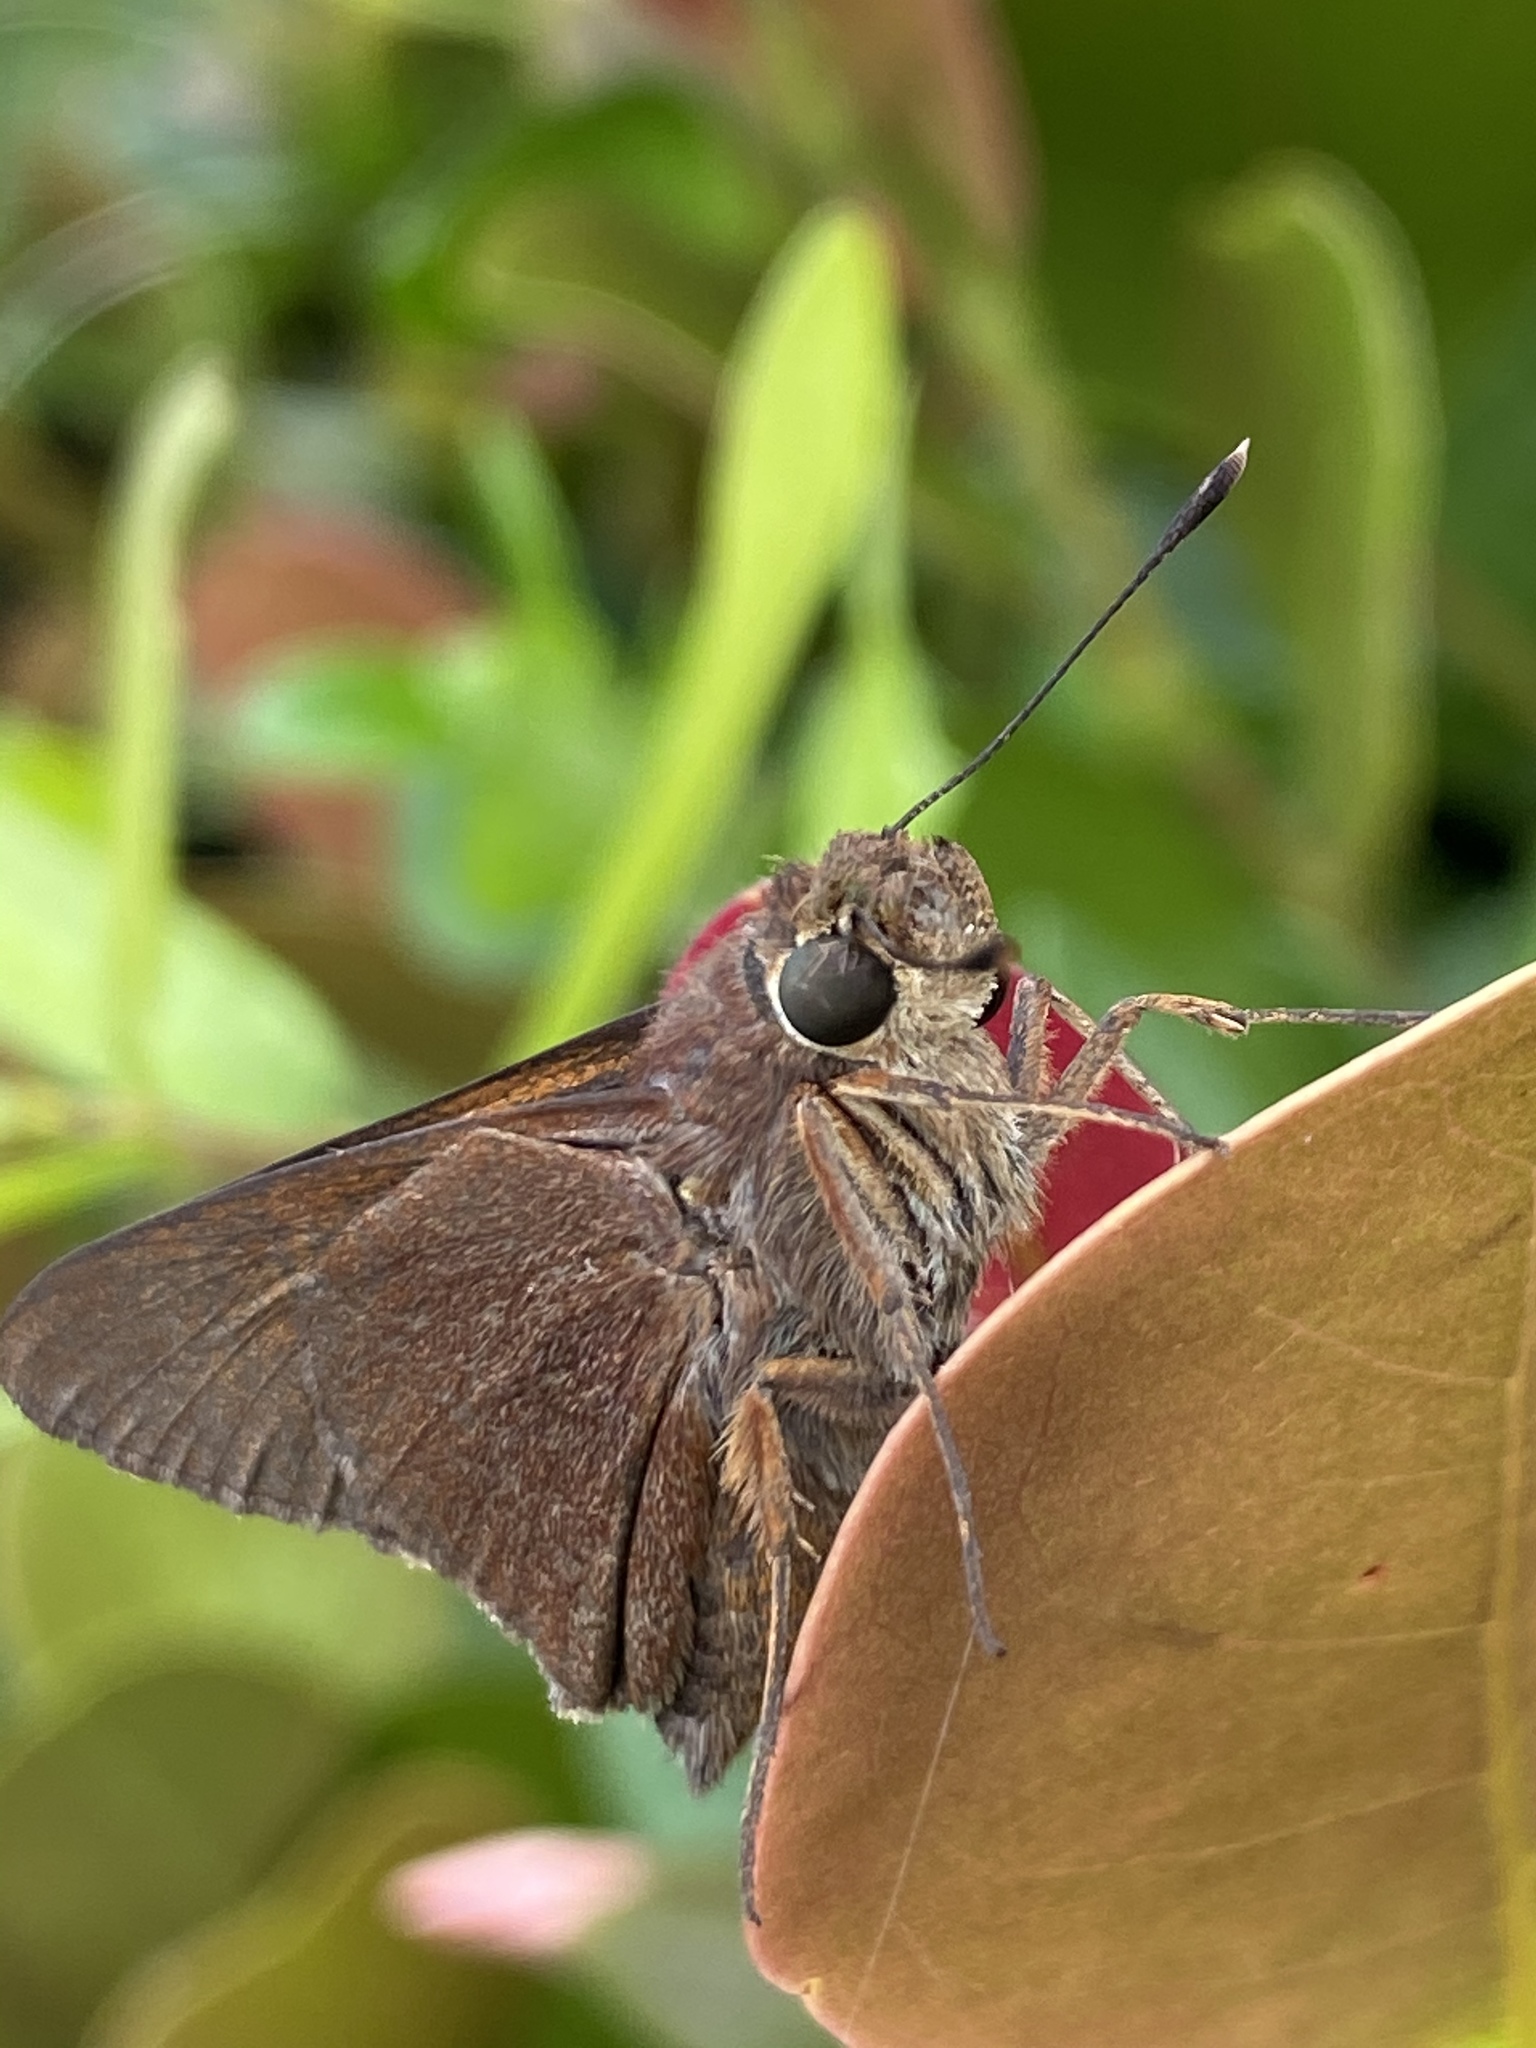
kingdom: Animalia
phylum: Arthropoda
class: Insecta
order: Lepidoptera
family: Hesperiidae
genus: Asbolis
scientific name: Asbolis capucinus
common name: Monk skipper
